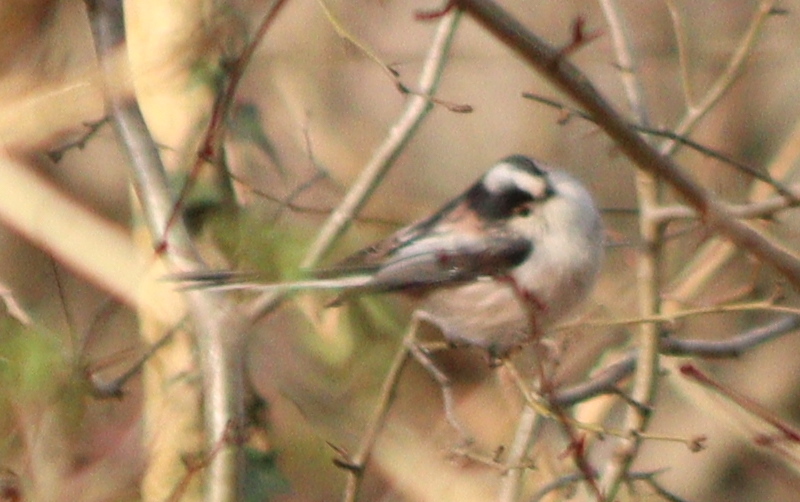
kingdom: Animalia
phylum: Chordata
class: Aves
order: Passeriformes
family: Aegithalidae
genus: Aegithalos
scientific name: Aegithalos caudatus
